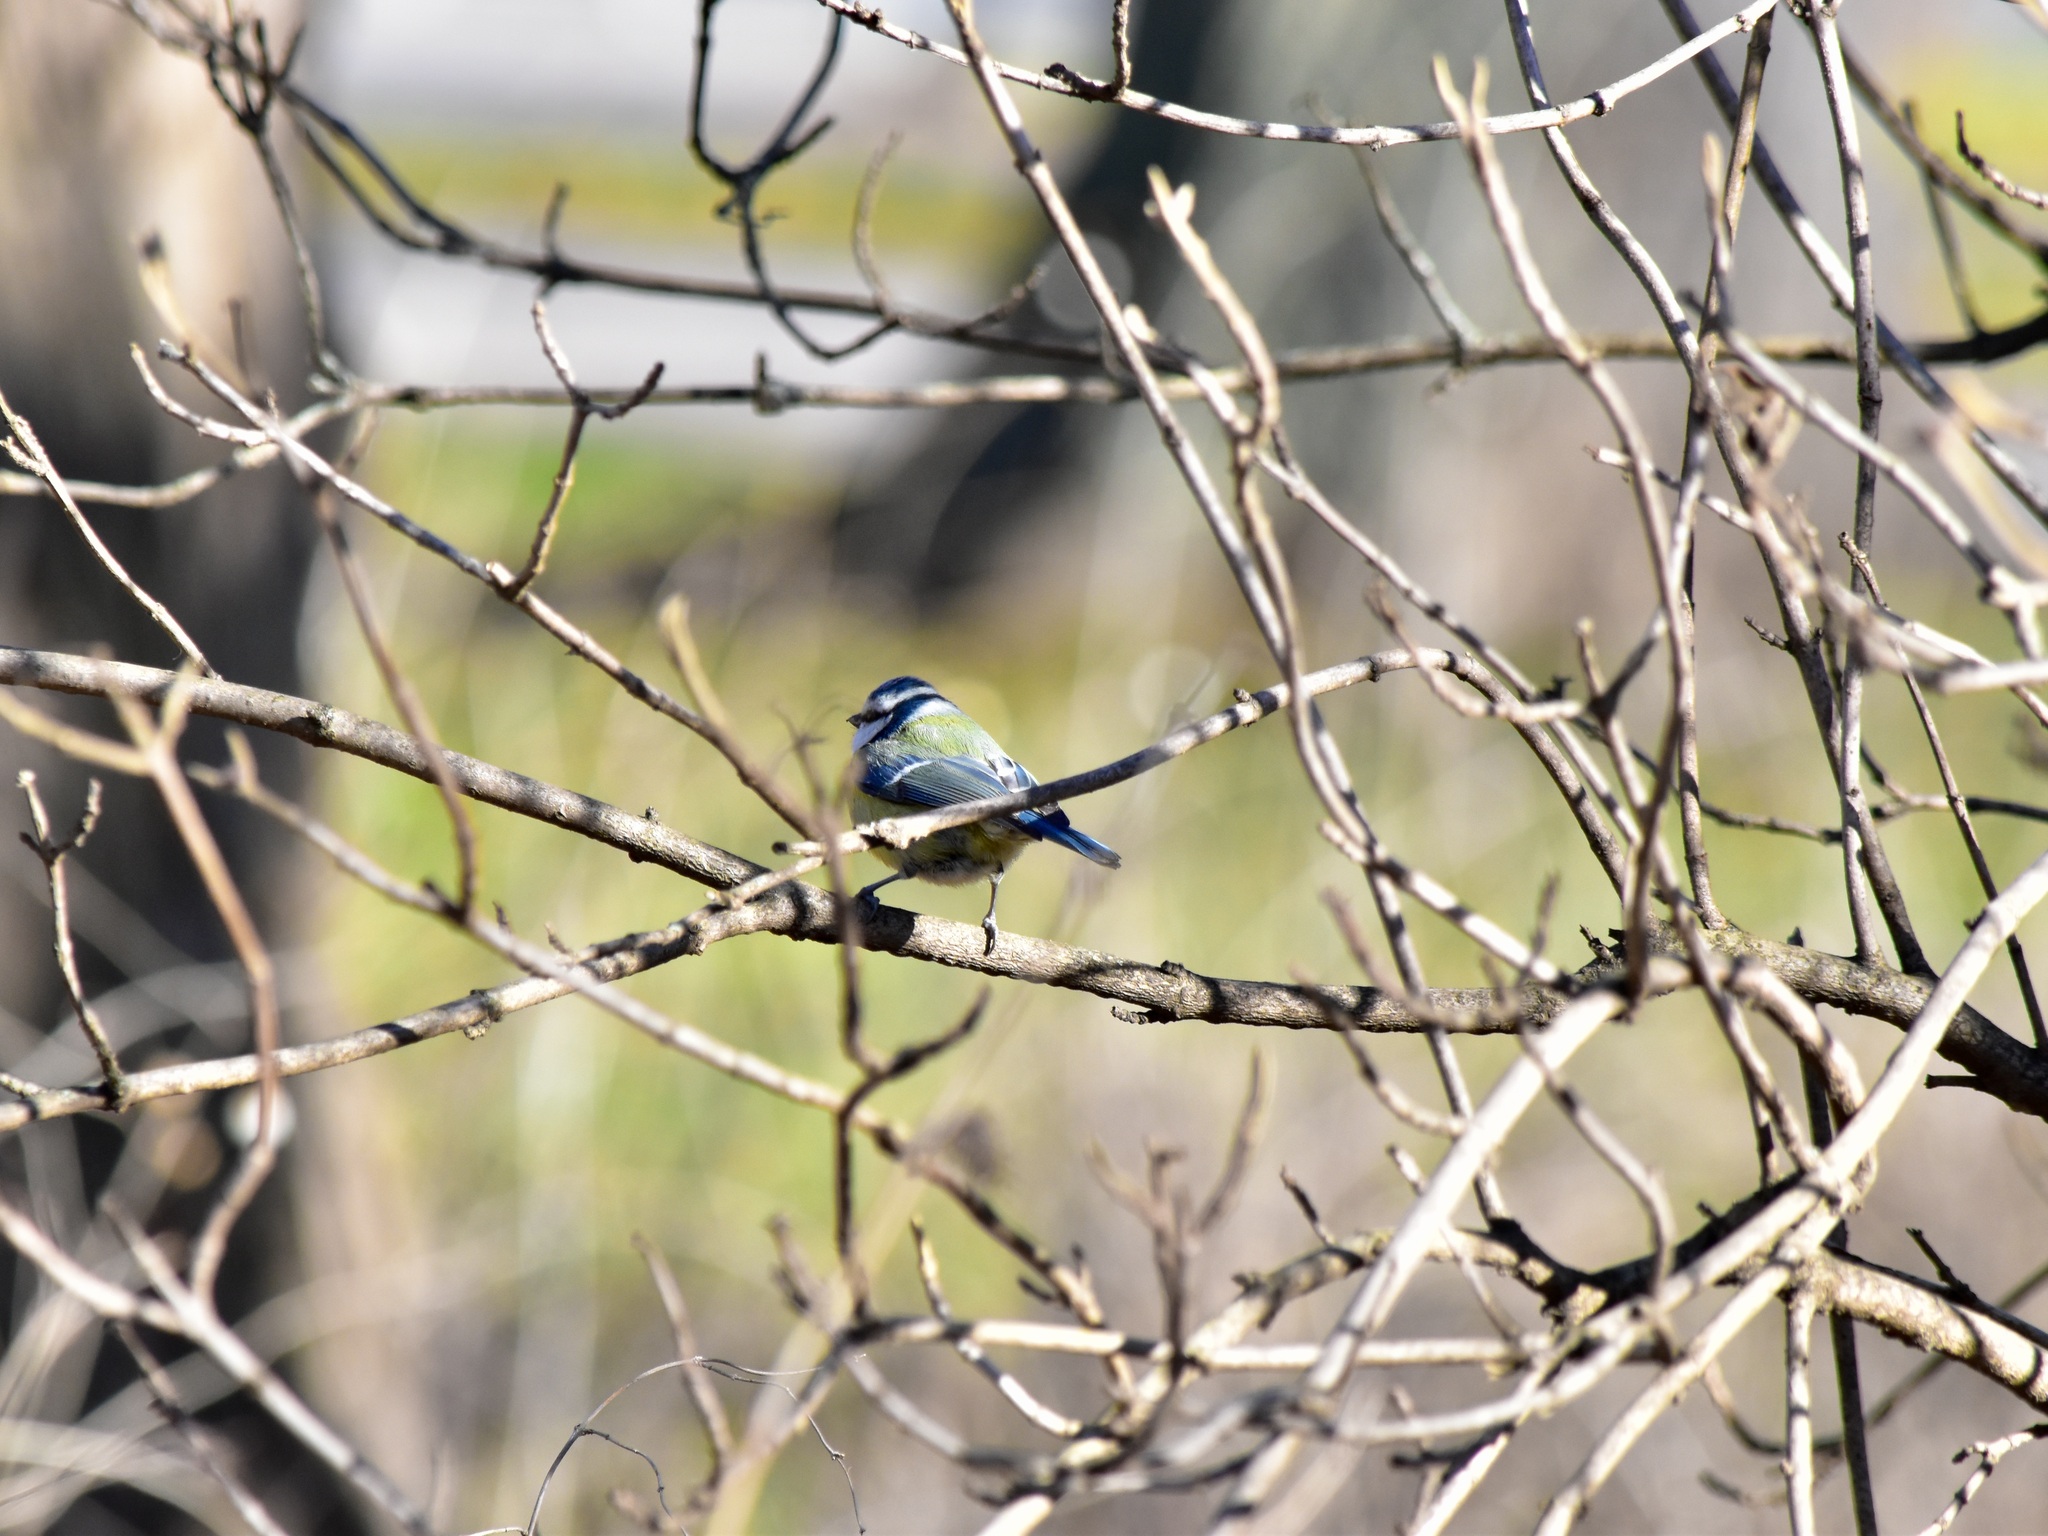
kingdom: Animalia
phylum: Chordata
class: Aves
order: Passeriformes
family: Paridae
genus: Cyanistes
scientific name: Cyanistes caeruleus
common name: Eurasian blue tit
